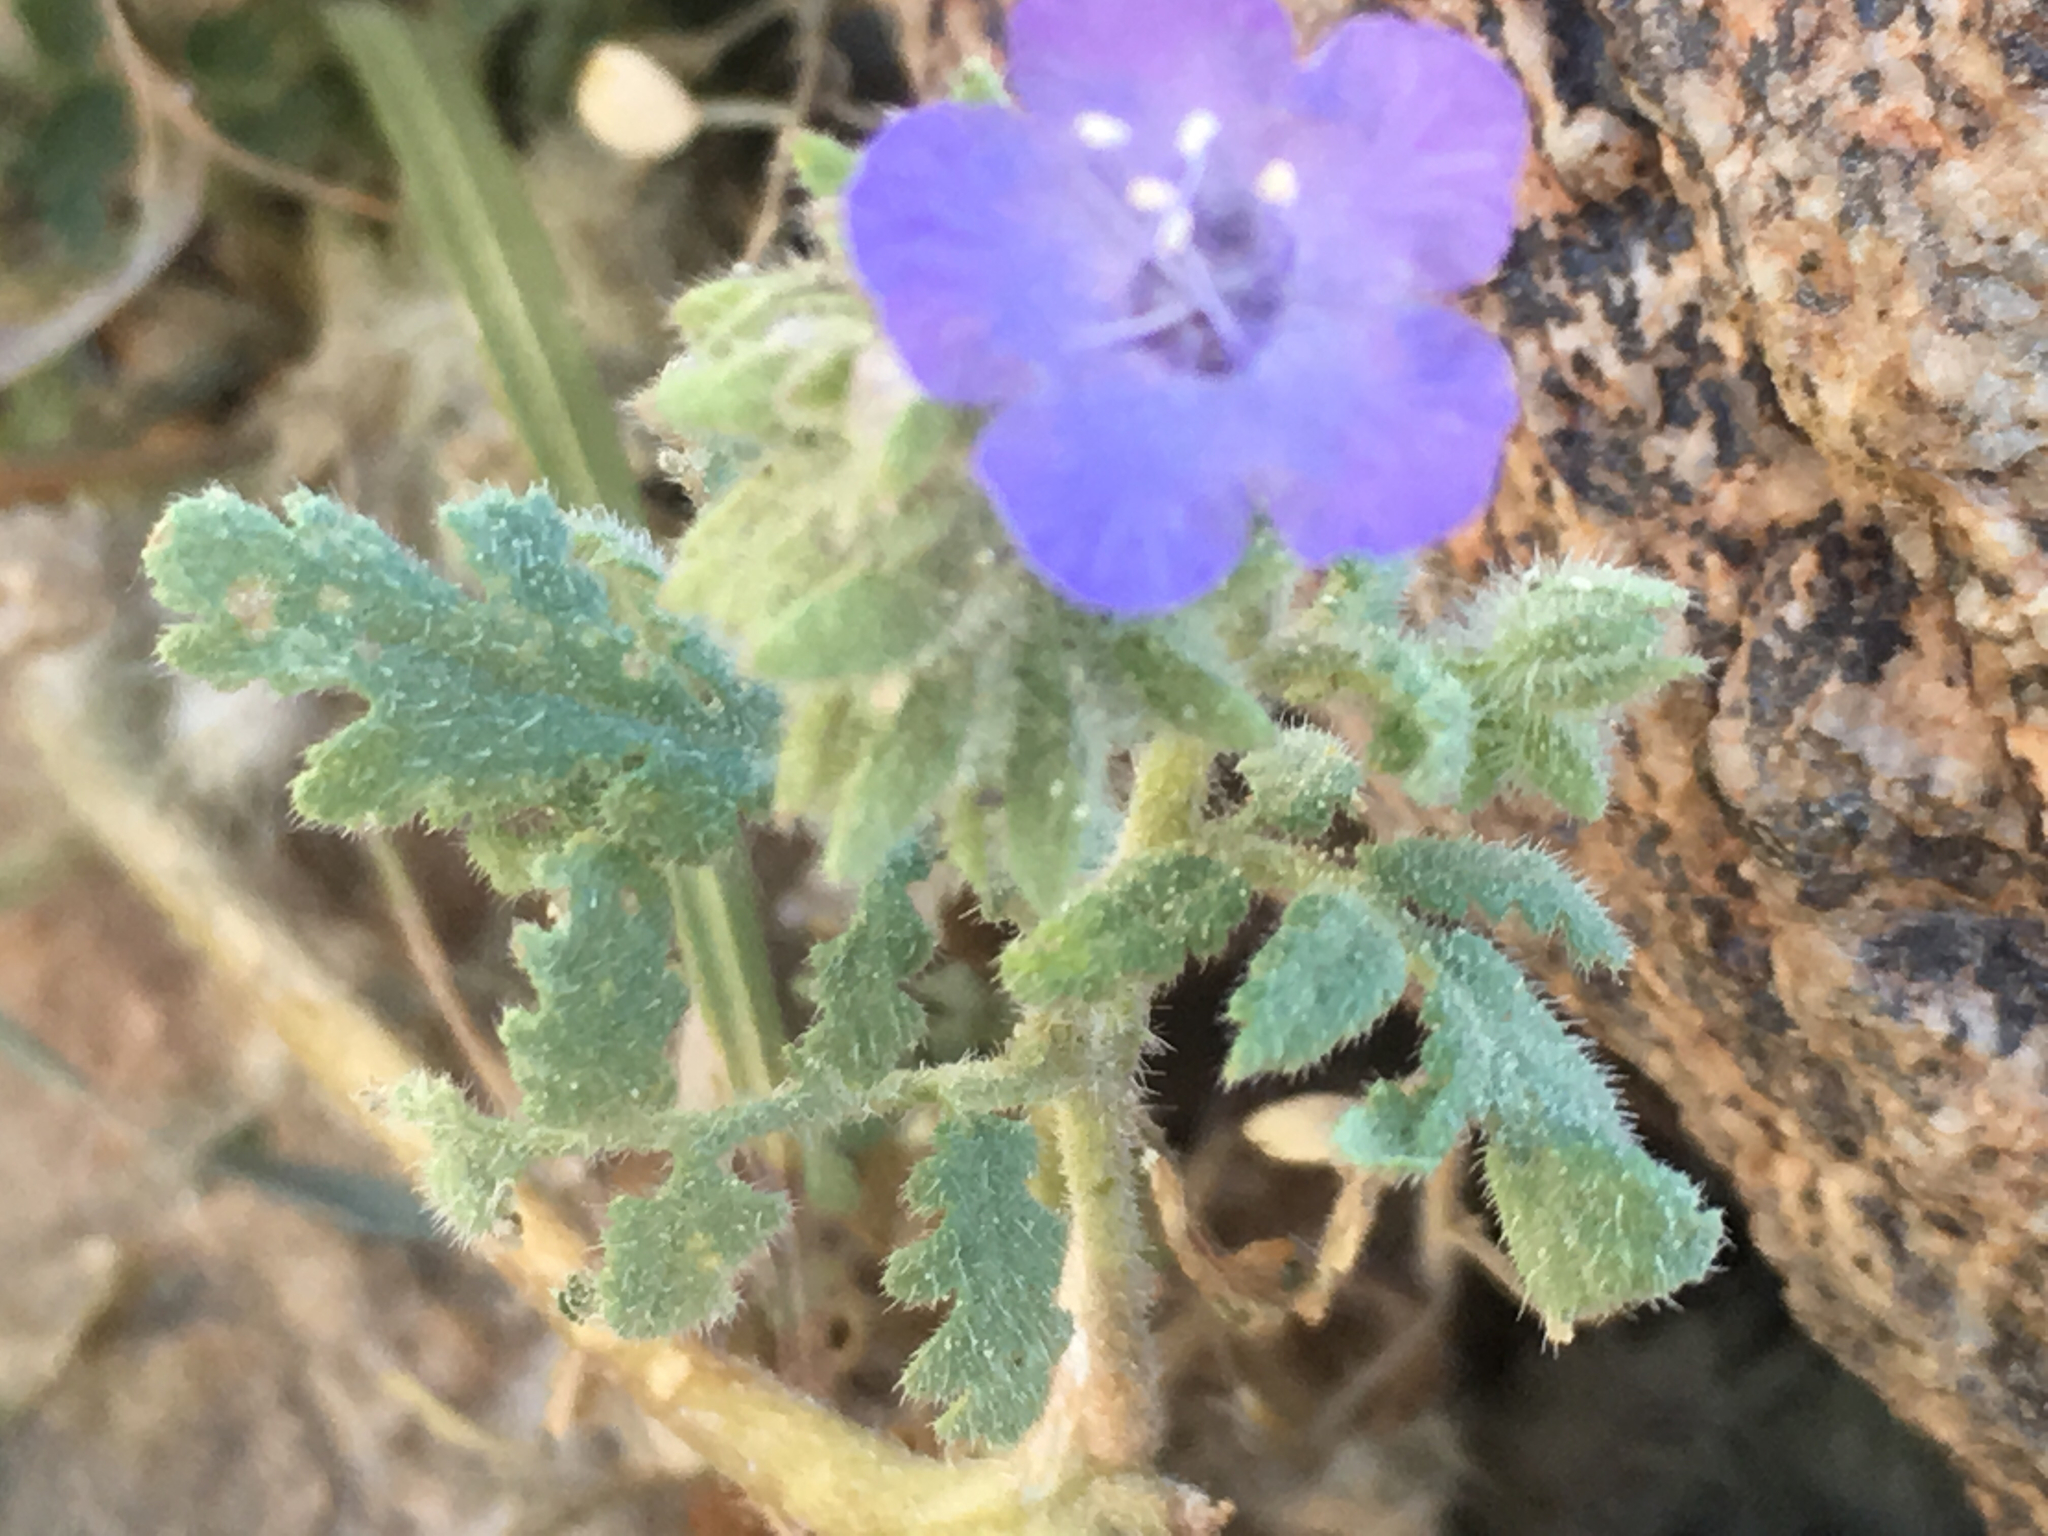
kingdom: Plantae
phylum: Tracheophyta
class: Magnoliopsida
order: Boraginales
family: Hydrophyllaceae
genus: Phacelia
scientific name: Phacelia distans
